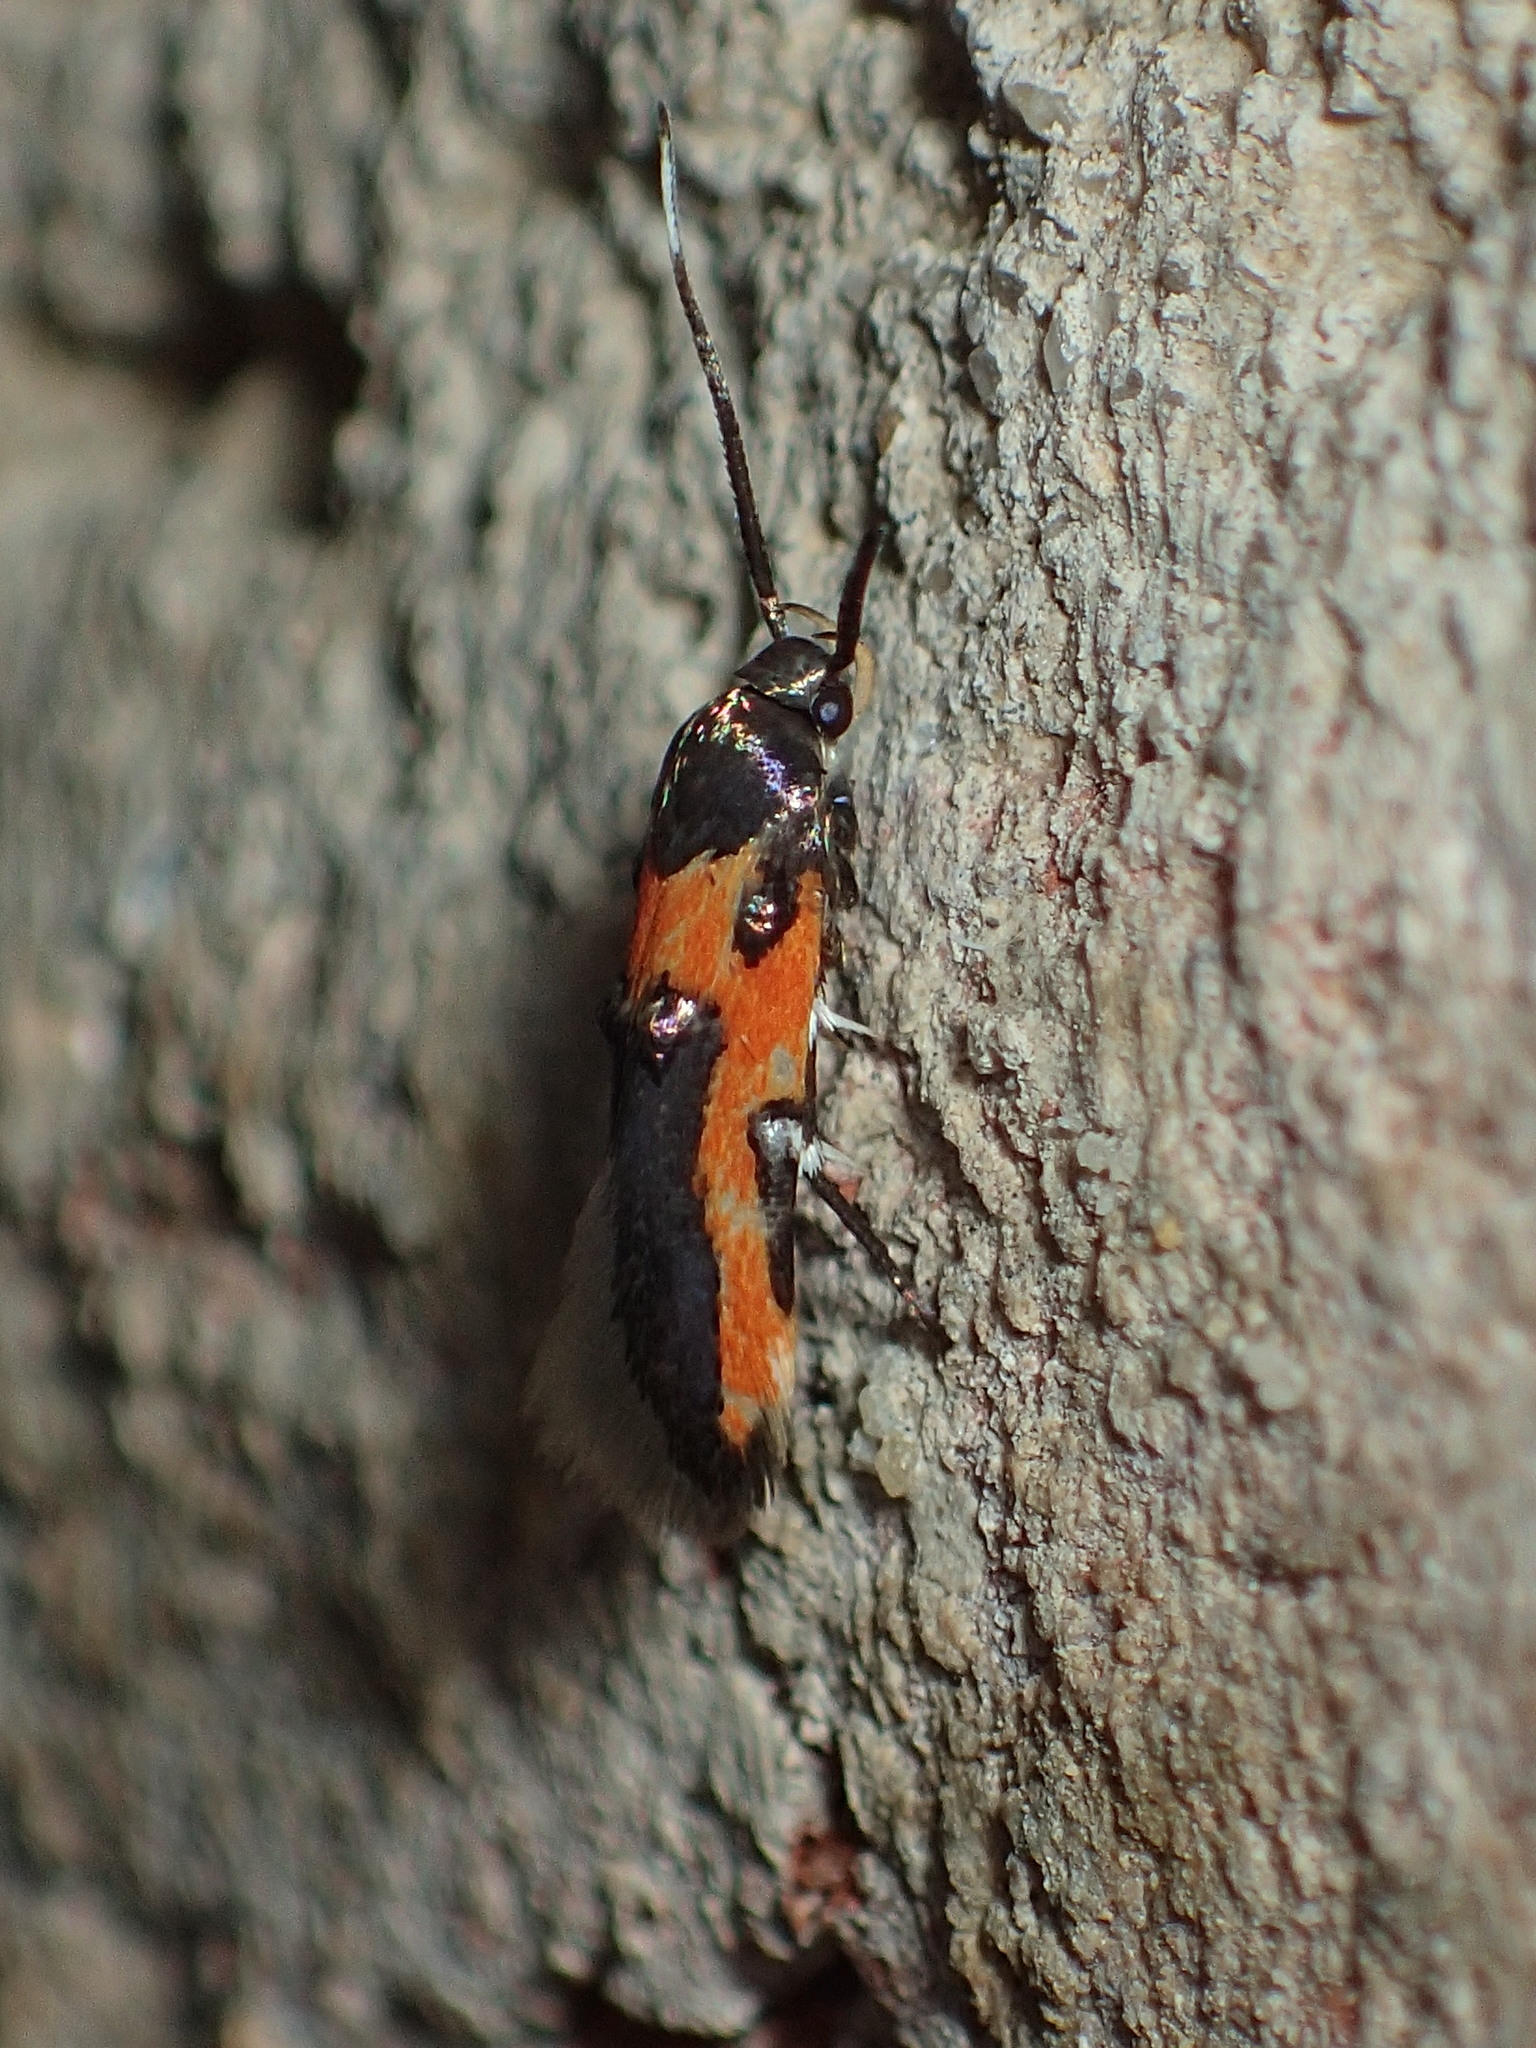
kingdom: Animalia
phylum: Arthropoda
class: Insecta
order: Lepidoptera
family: Cosmopterigidae
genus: Euclemensia
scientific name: Euclemensia bassettella
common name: Kermes scale moth
